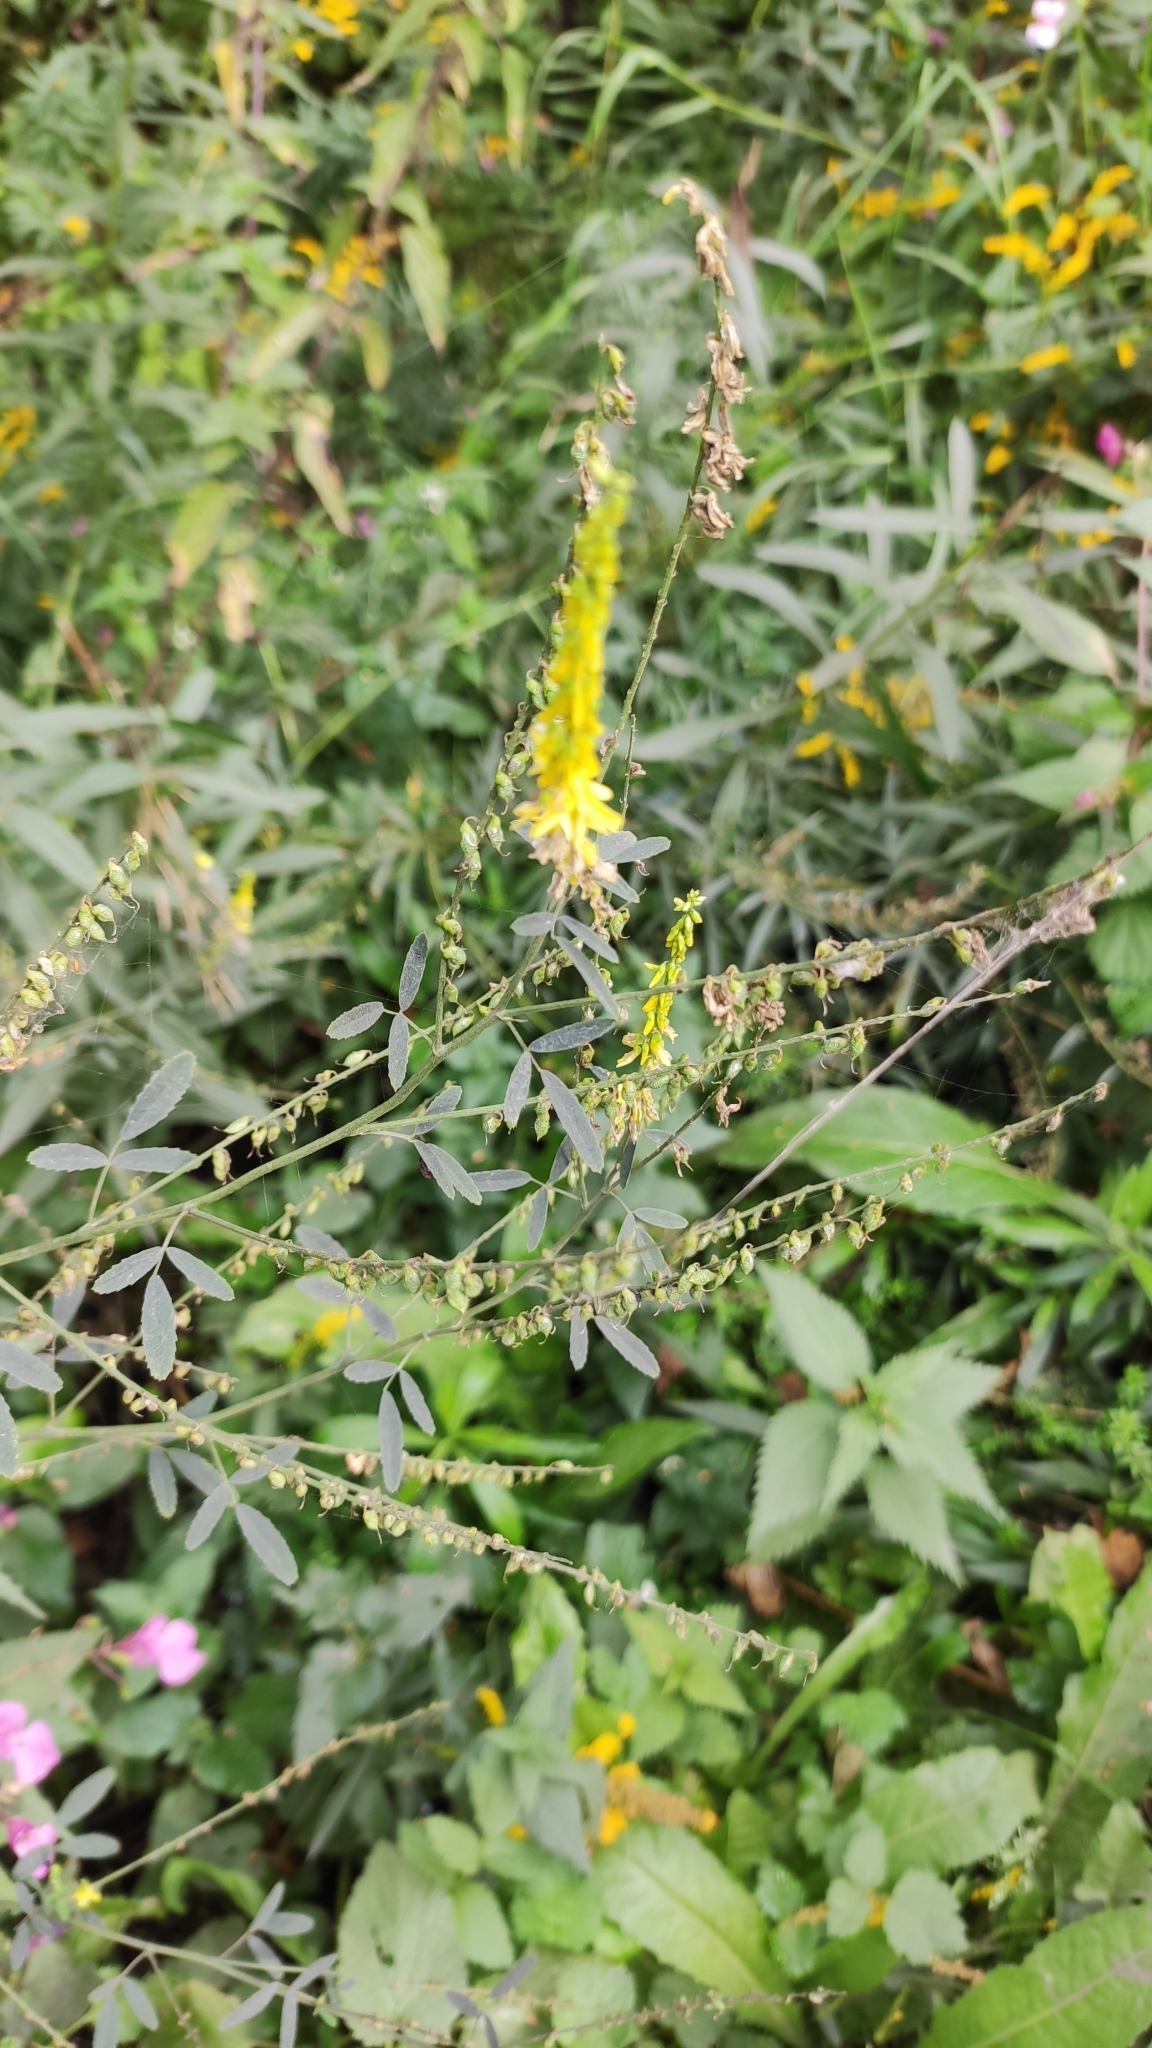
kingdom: Plantae
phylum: Tracheophyta
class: Magnoliopsida
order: Fabales
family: Fabaceae
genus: Melilotus
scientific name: Melilotus officinalis
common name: Sweetclover
